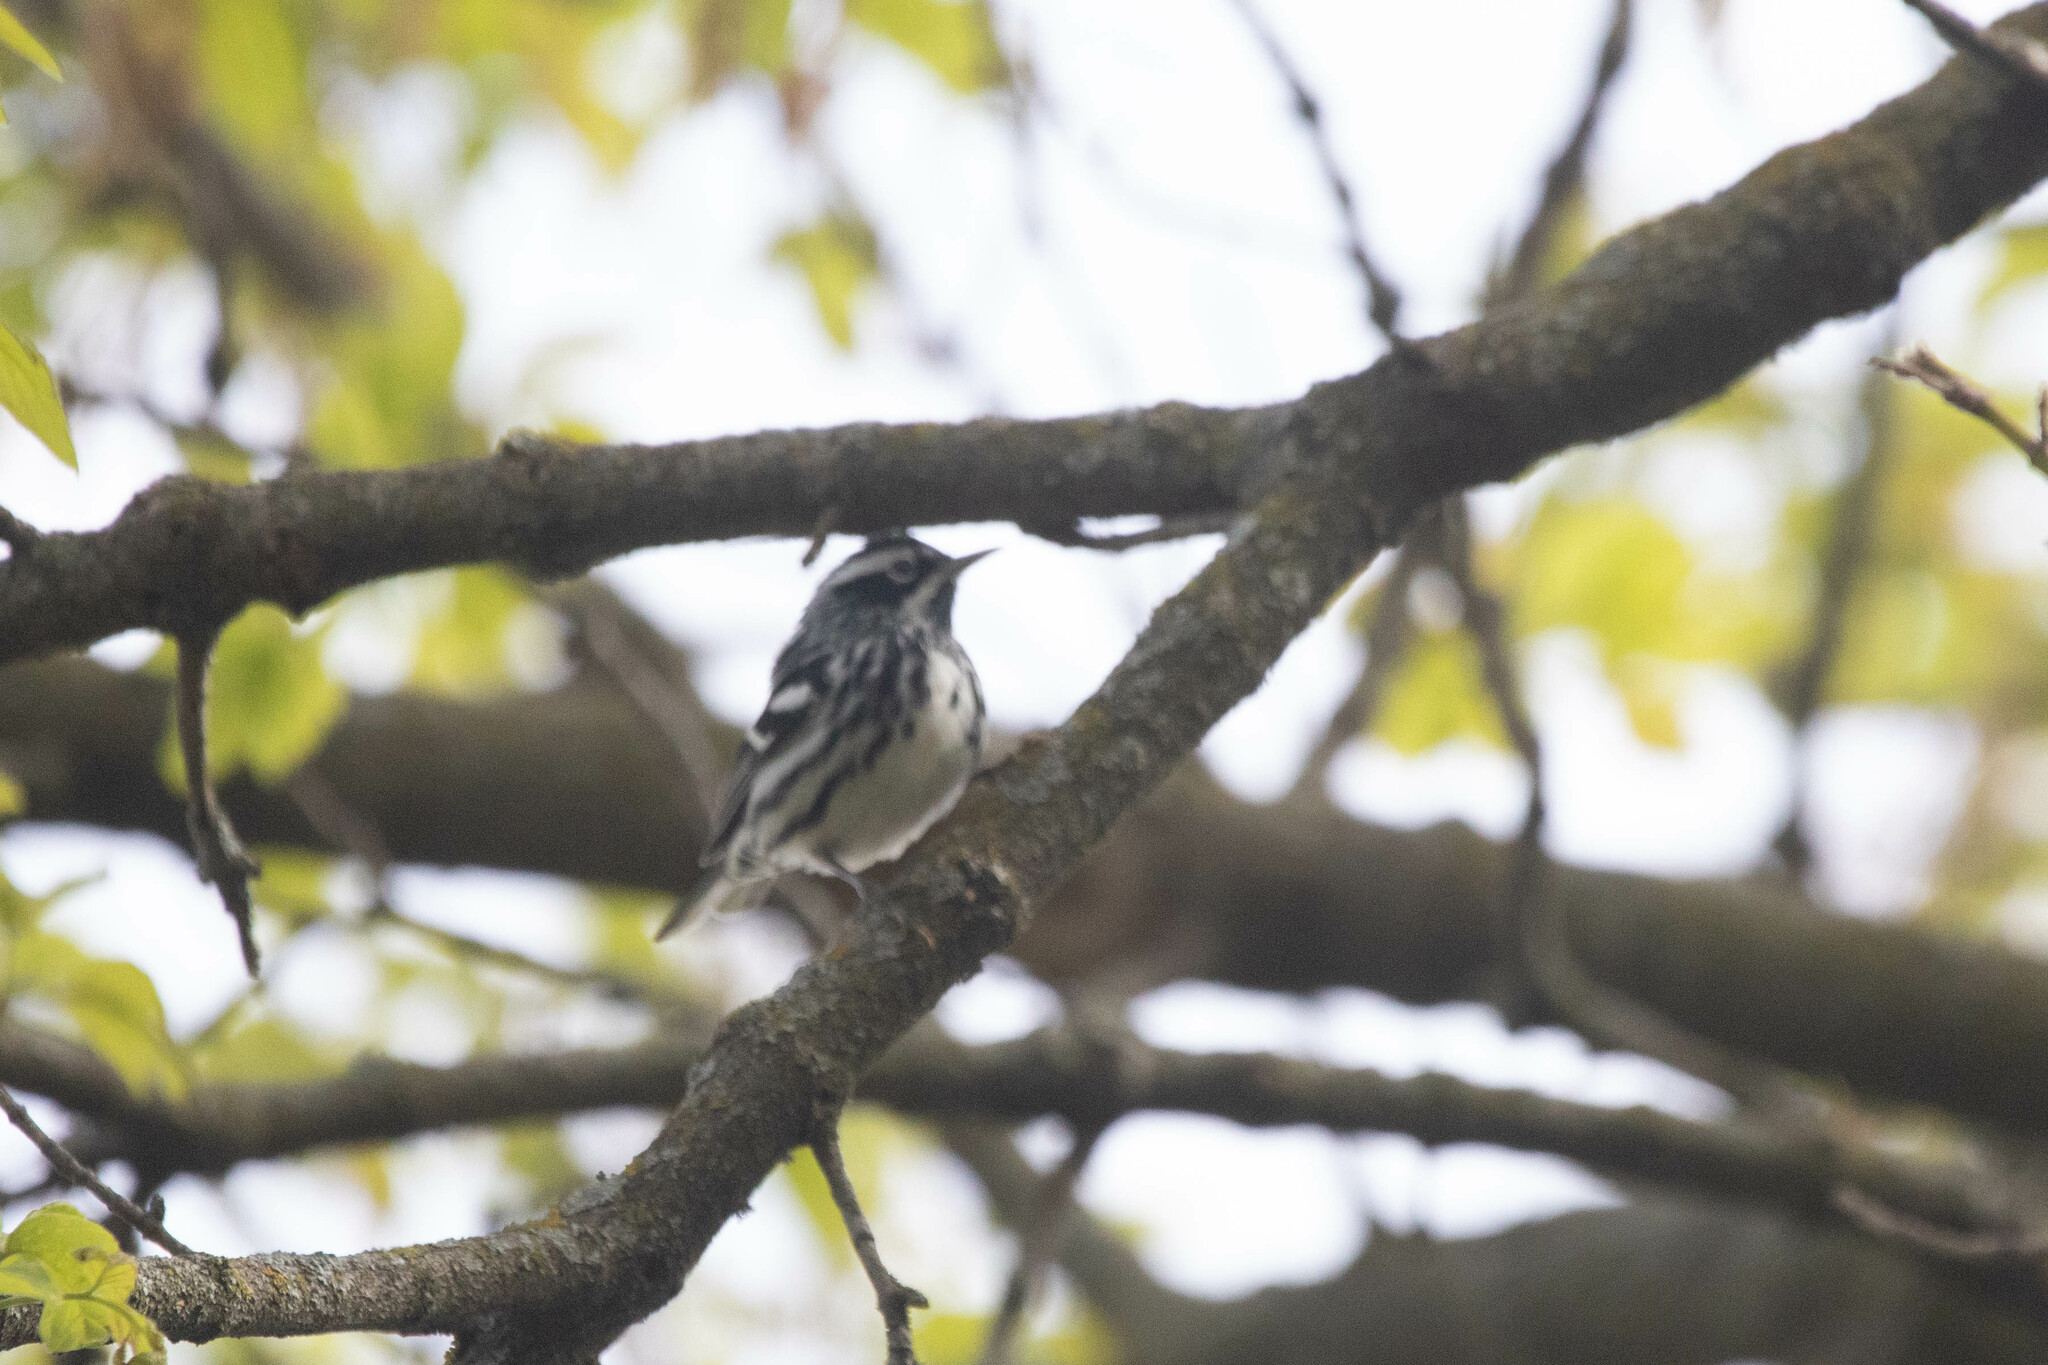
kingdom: Animalia
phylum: Chordata
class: Aves
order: Passeriformes
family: Parulidae
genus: Mniotilta
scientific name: Mniotilta varia
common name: Black-and-white warbler
